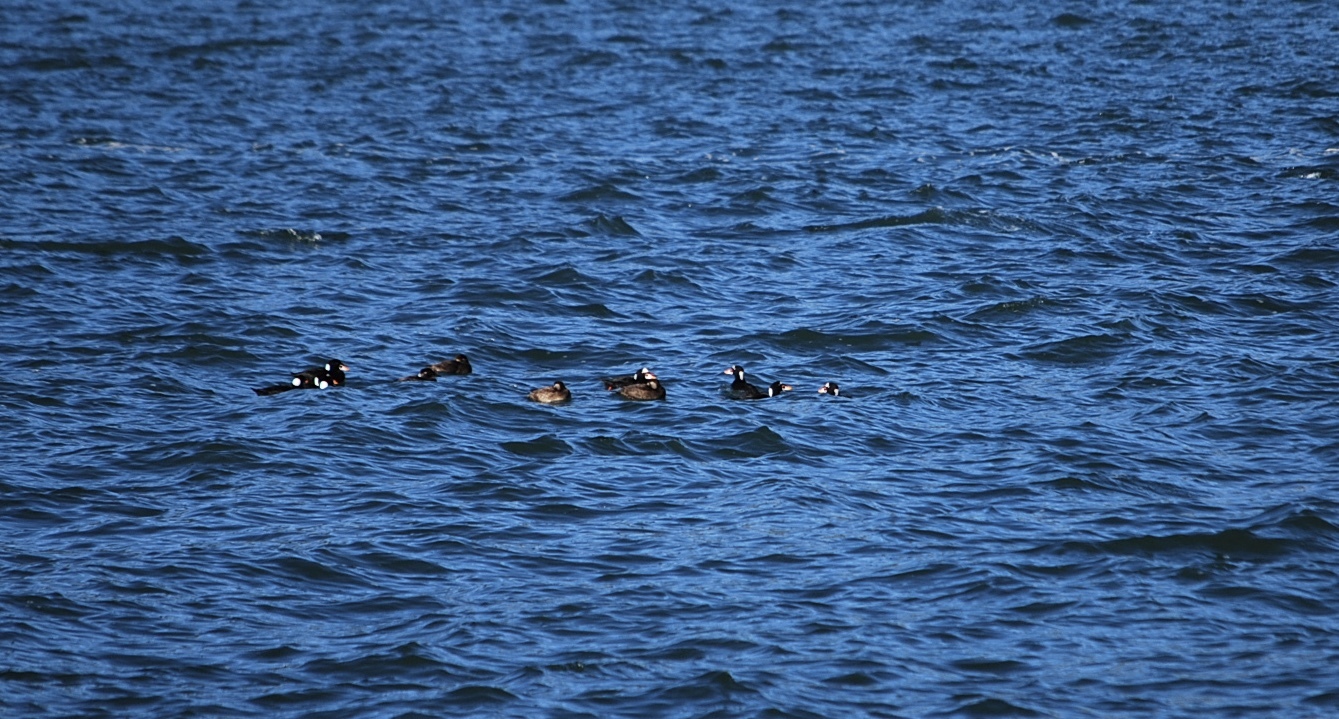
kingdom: Animalia
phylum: Chordata
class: Aves
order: Anseriformes
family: Anatidae
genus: Melanitta
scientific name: Melanitta perspicillata
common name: Surf scoter
